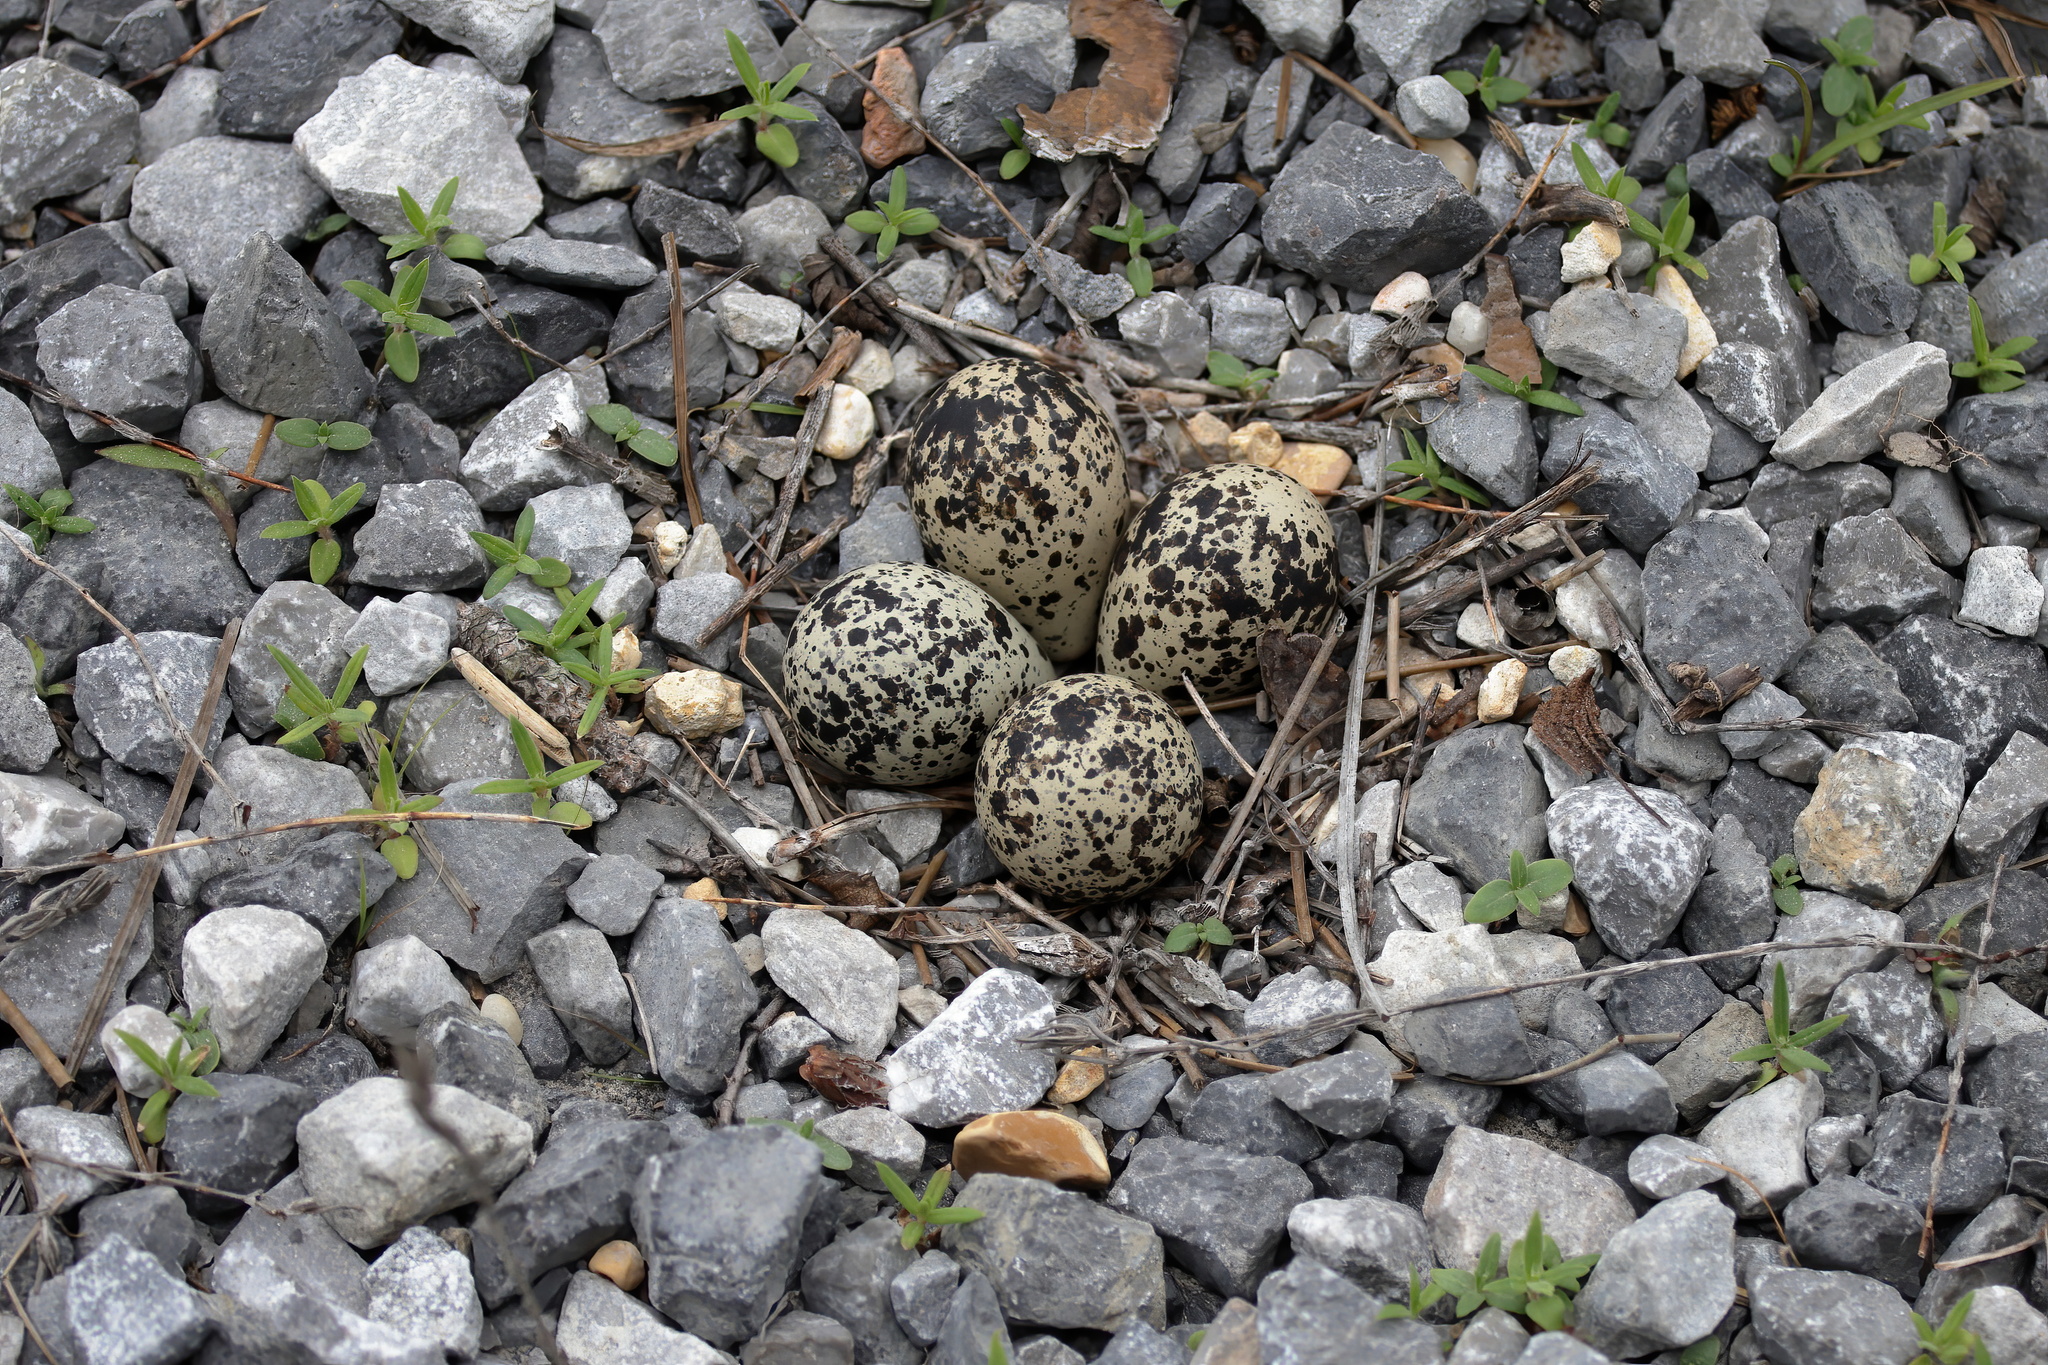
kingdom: Animalia
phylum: Chordata
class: Aves
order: Charadriiformes
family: Charadriidae
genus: Charadrius
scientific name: Charadrius vociferus
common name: Killdeer
